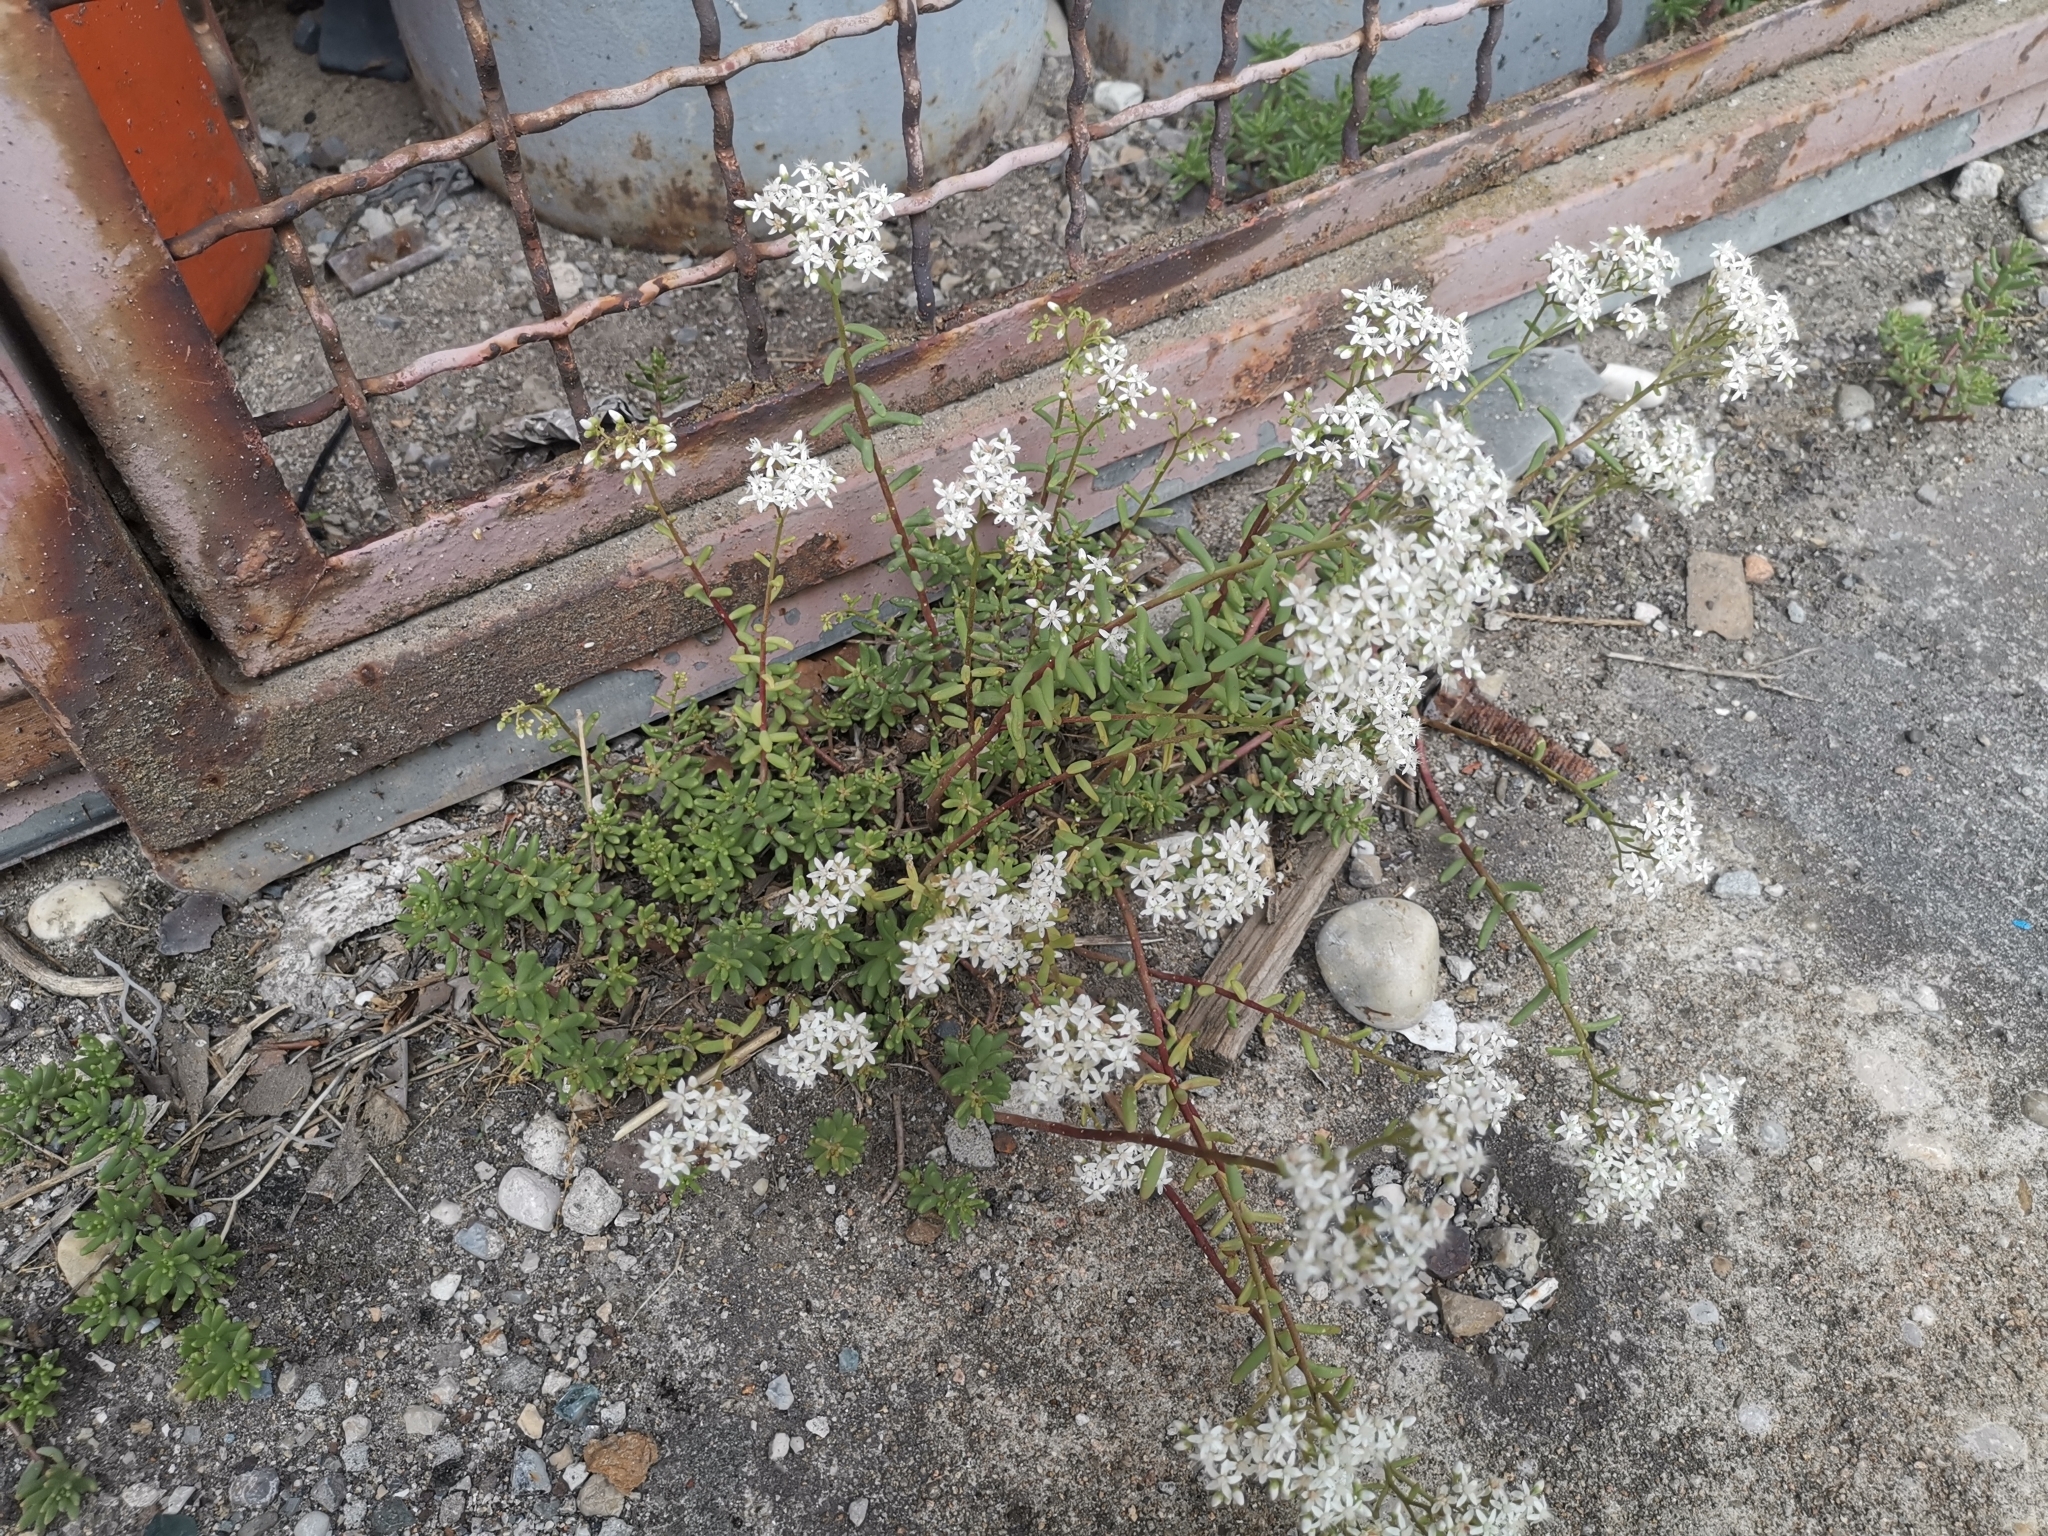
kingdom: Plantae
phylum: Tracheophyta
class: Magnoliopsida
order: Saxifragales
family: Crassulaceae
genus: Sedum
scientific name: Sedum album
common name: White stonecrop
